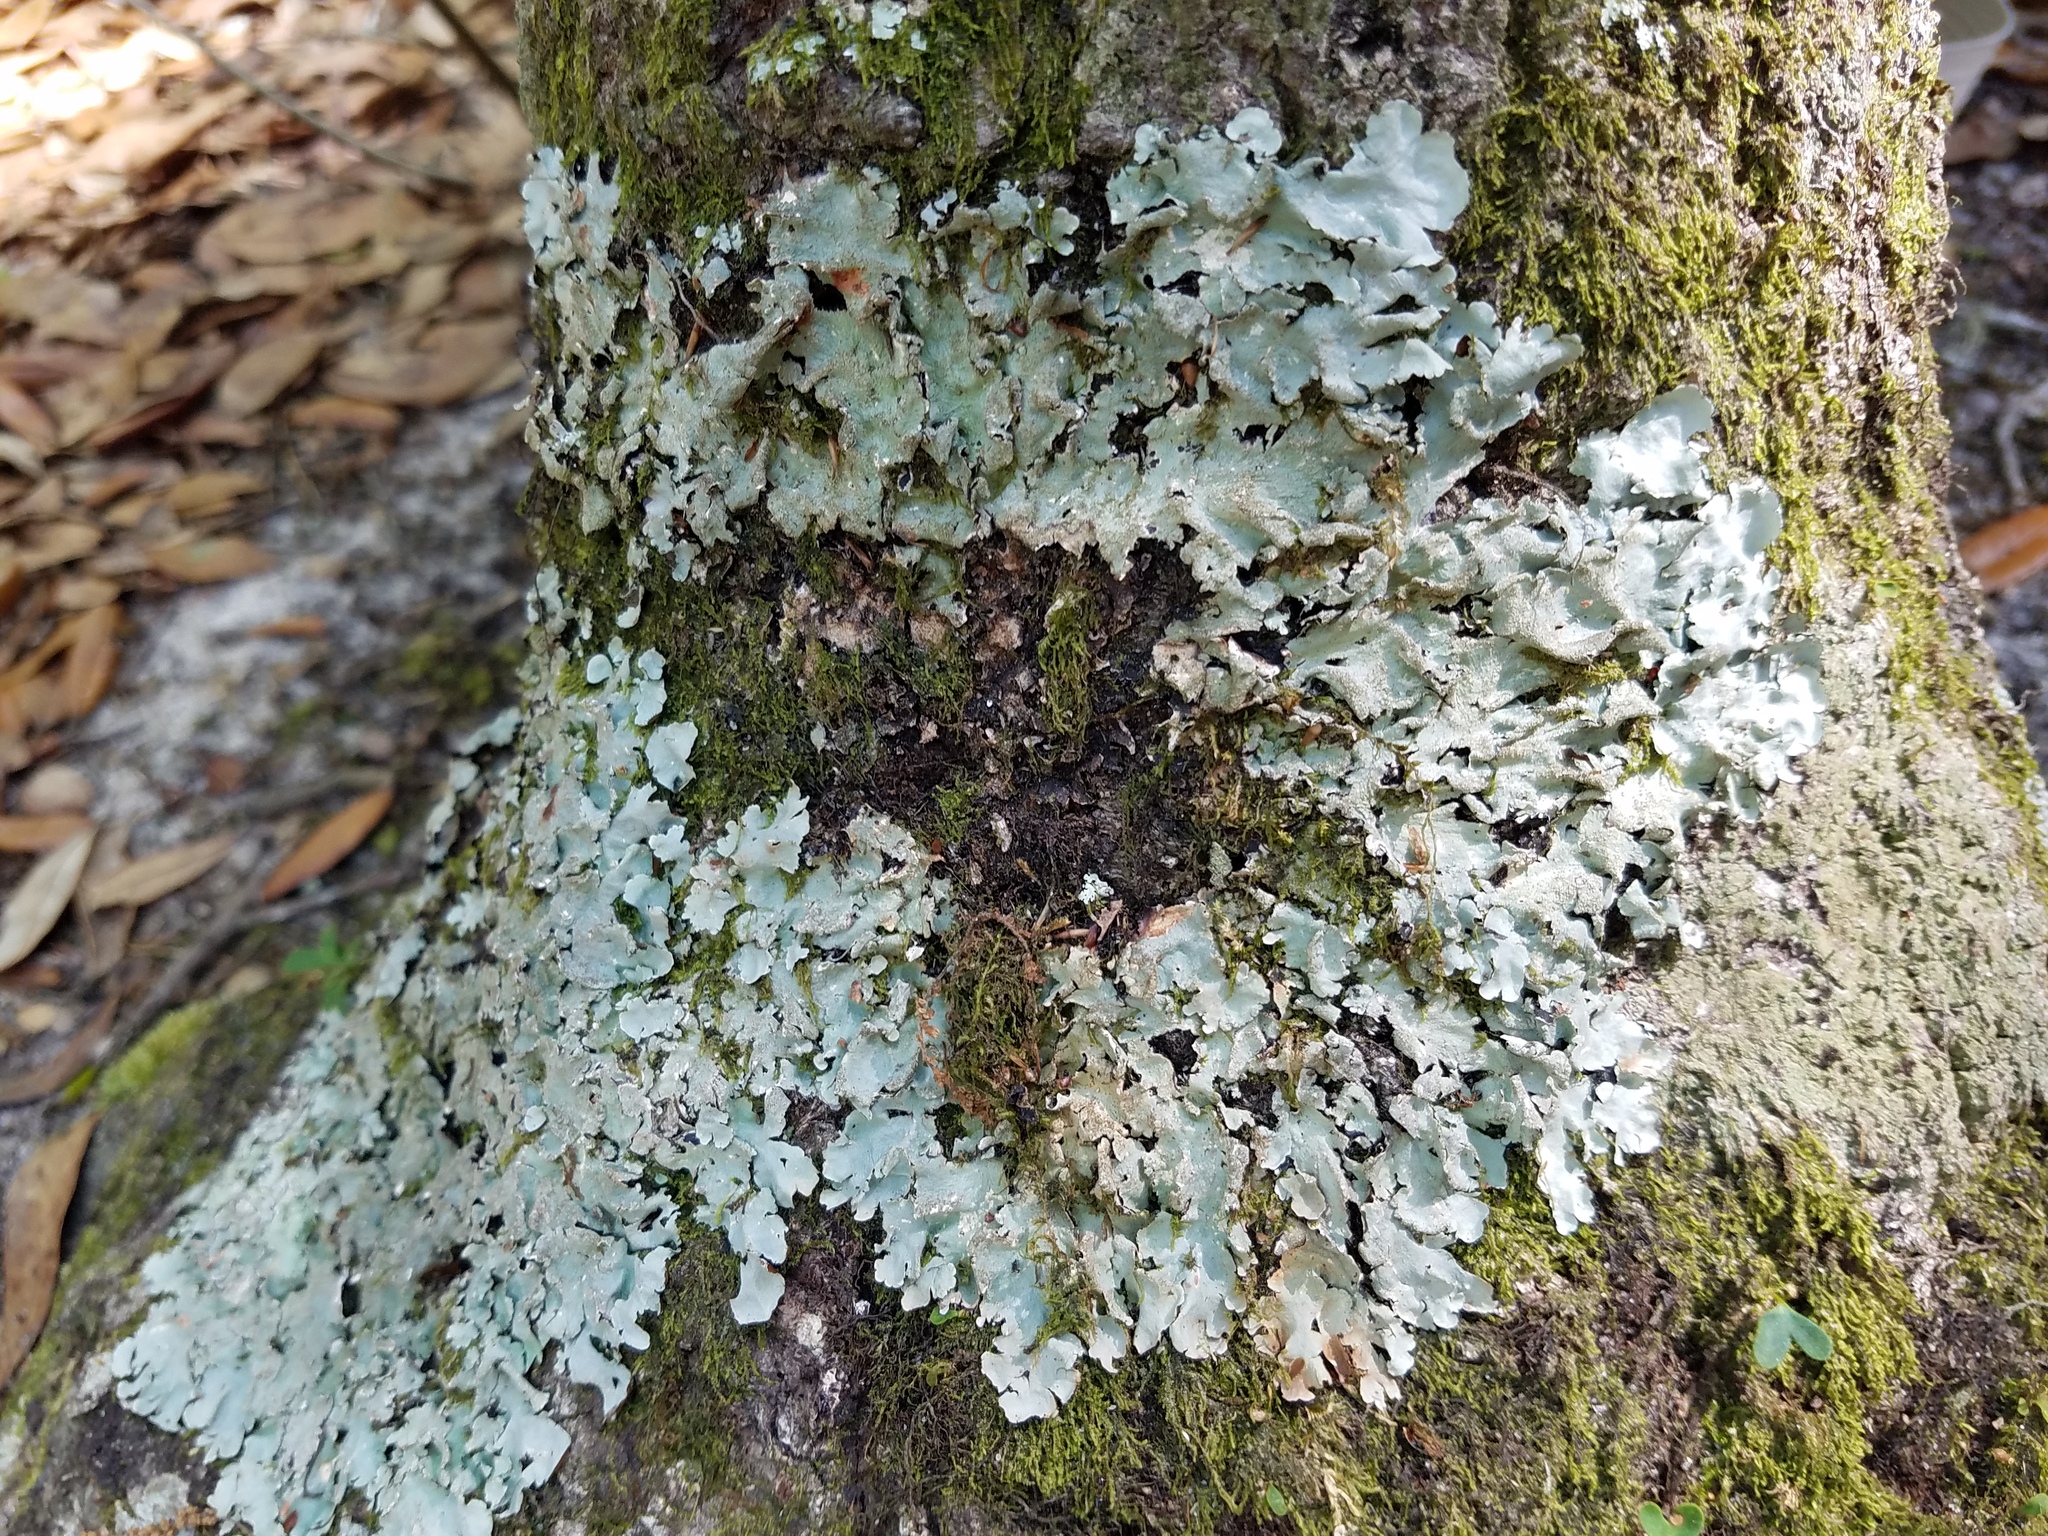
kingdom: Fungi
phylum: Ascomycota
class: Lecanoromycetes
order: Lecanorales
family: Parmeliaceae
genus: Parmotrema
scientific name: Parmotrema ultralucens
